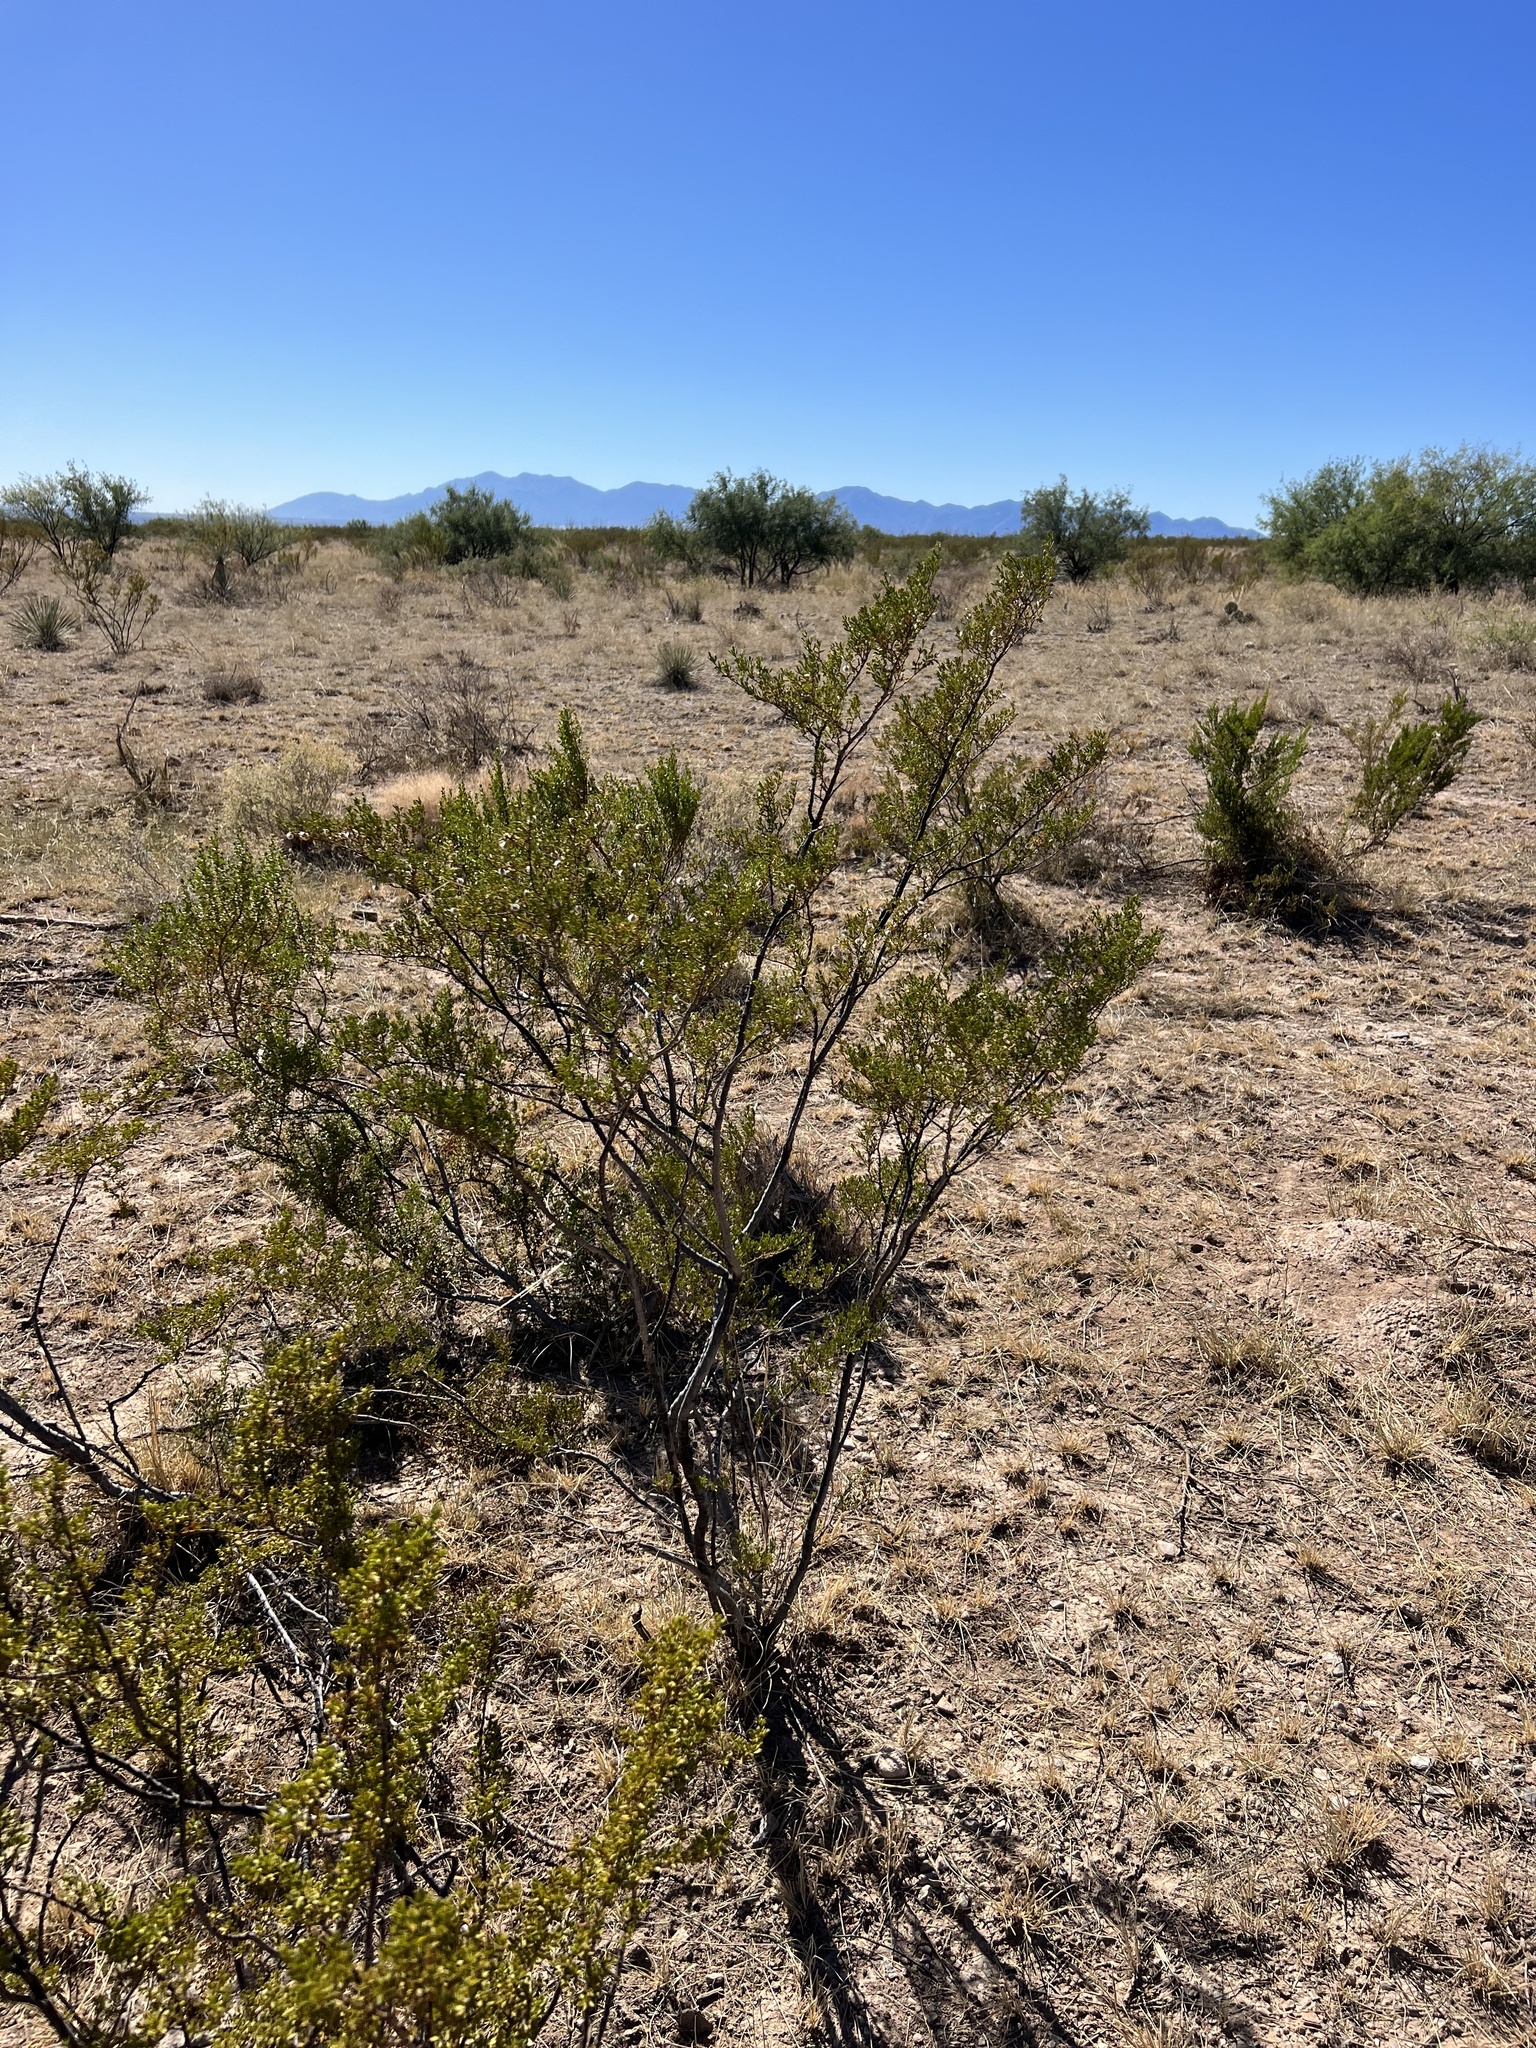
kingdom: Plantae
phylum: Tracheophyta
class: Magnoliopsida
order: Zygophyllales
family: Zygophyllaceae
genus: Larrea
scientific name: Larrea tridentata
